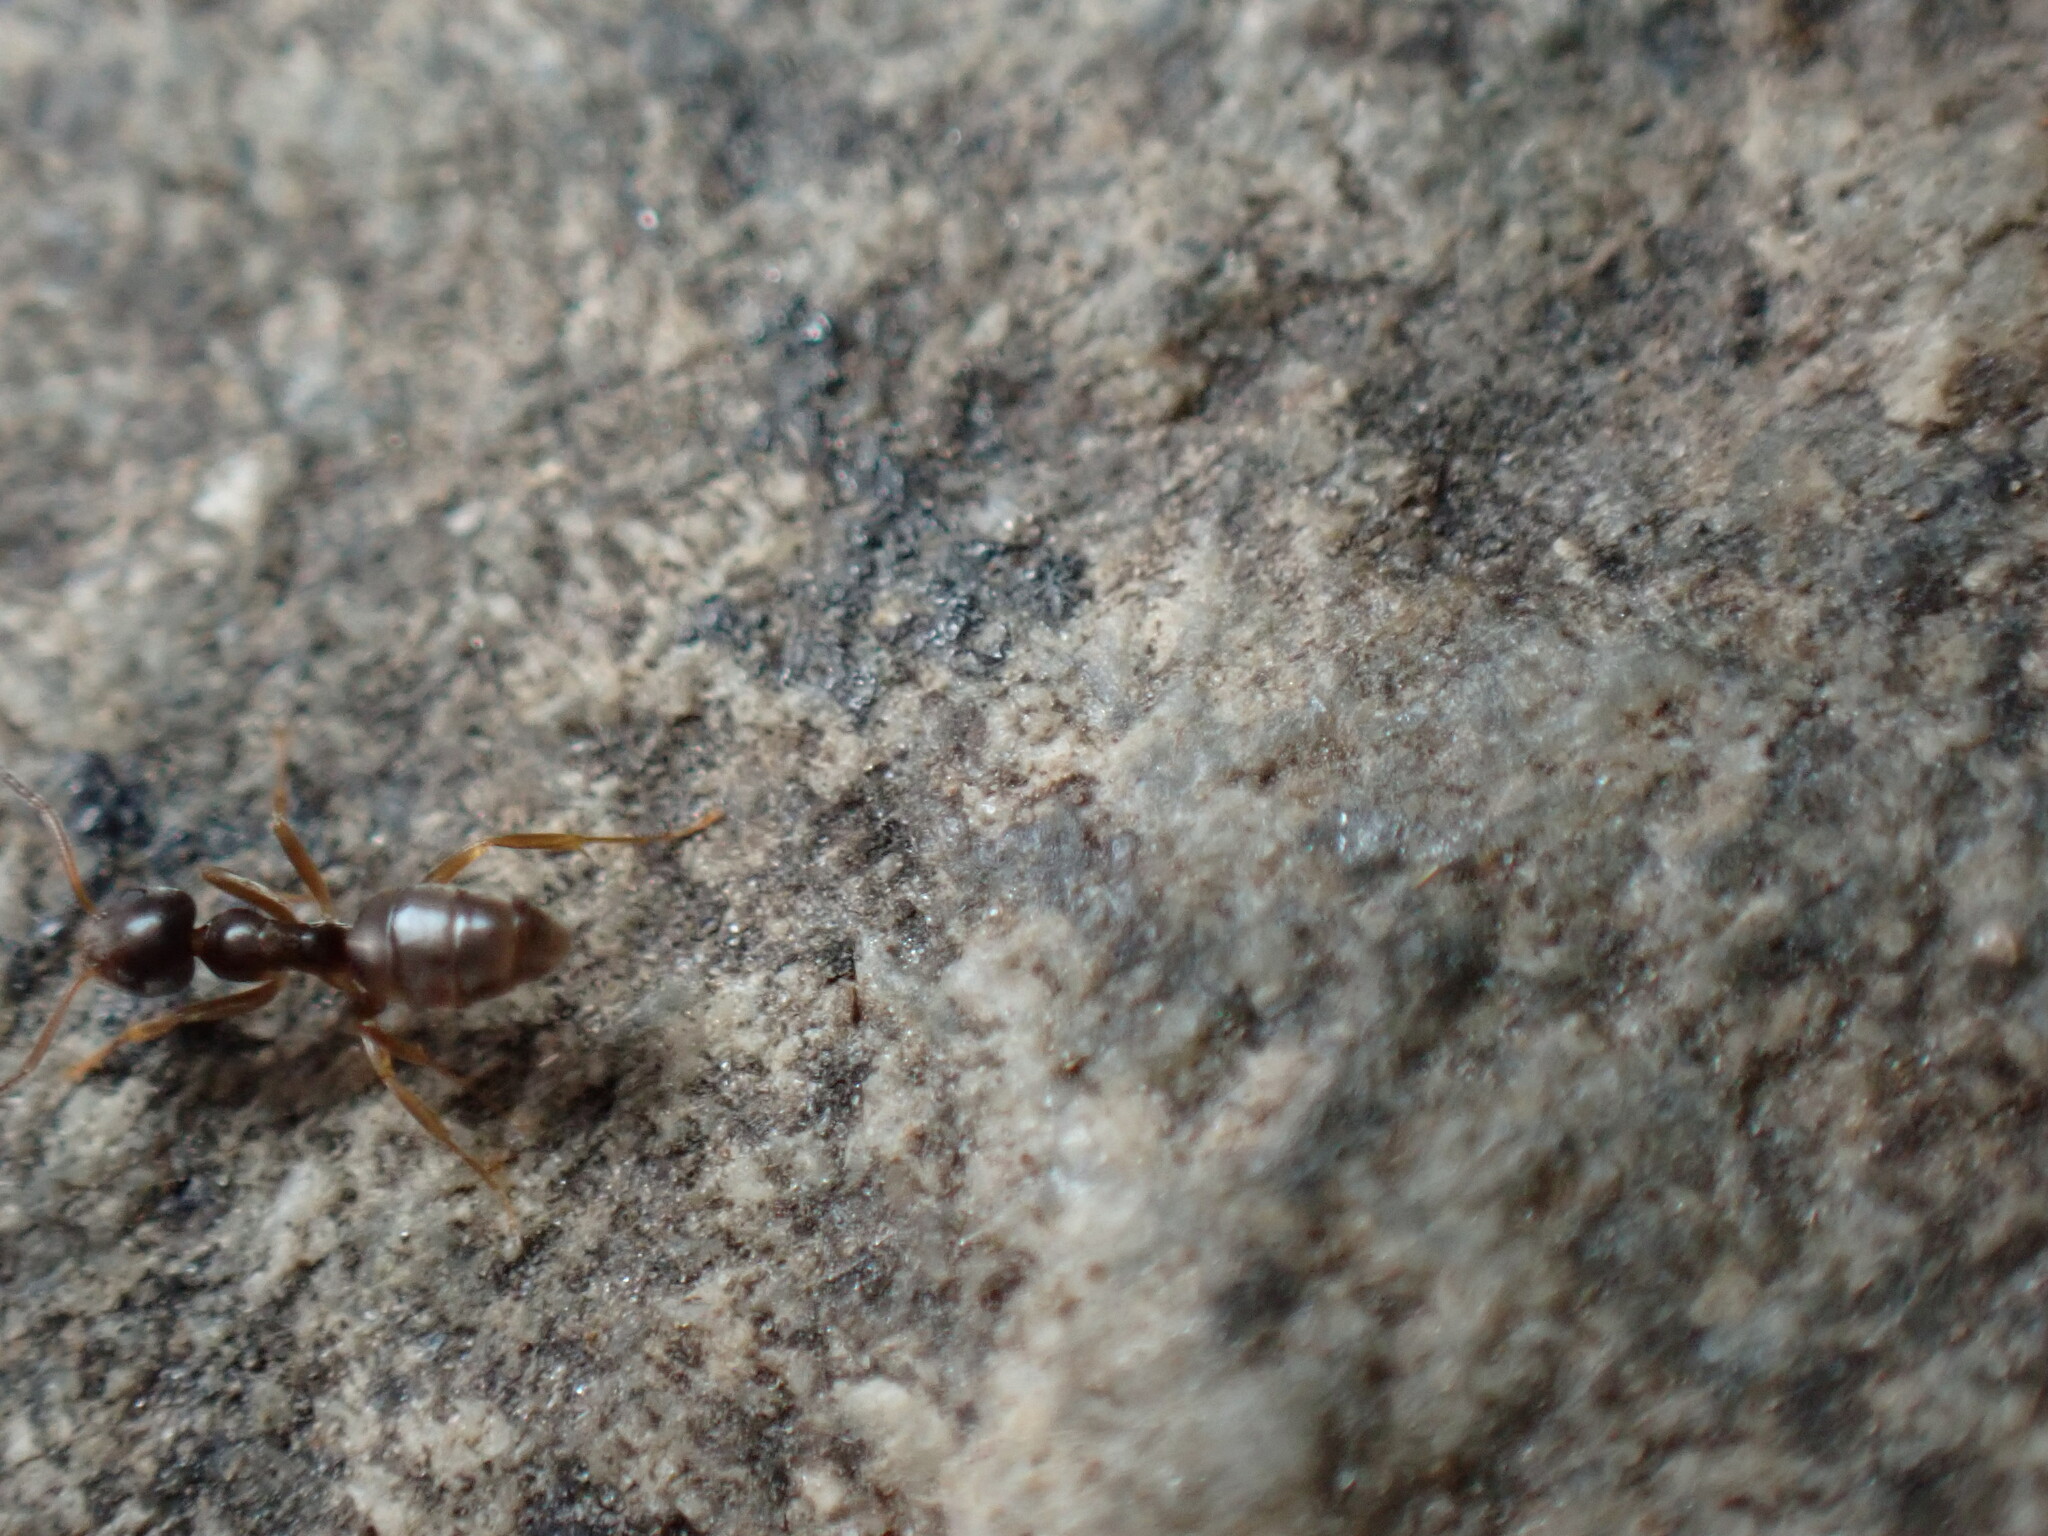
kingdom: Animalia
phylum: Arthropoda
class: Insecta
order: Hymenoptera
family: Formicidae
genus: Tapinoma
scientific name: Tapinoma sessile
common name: Odorous house ant
